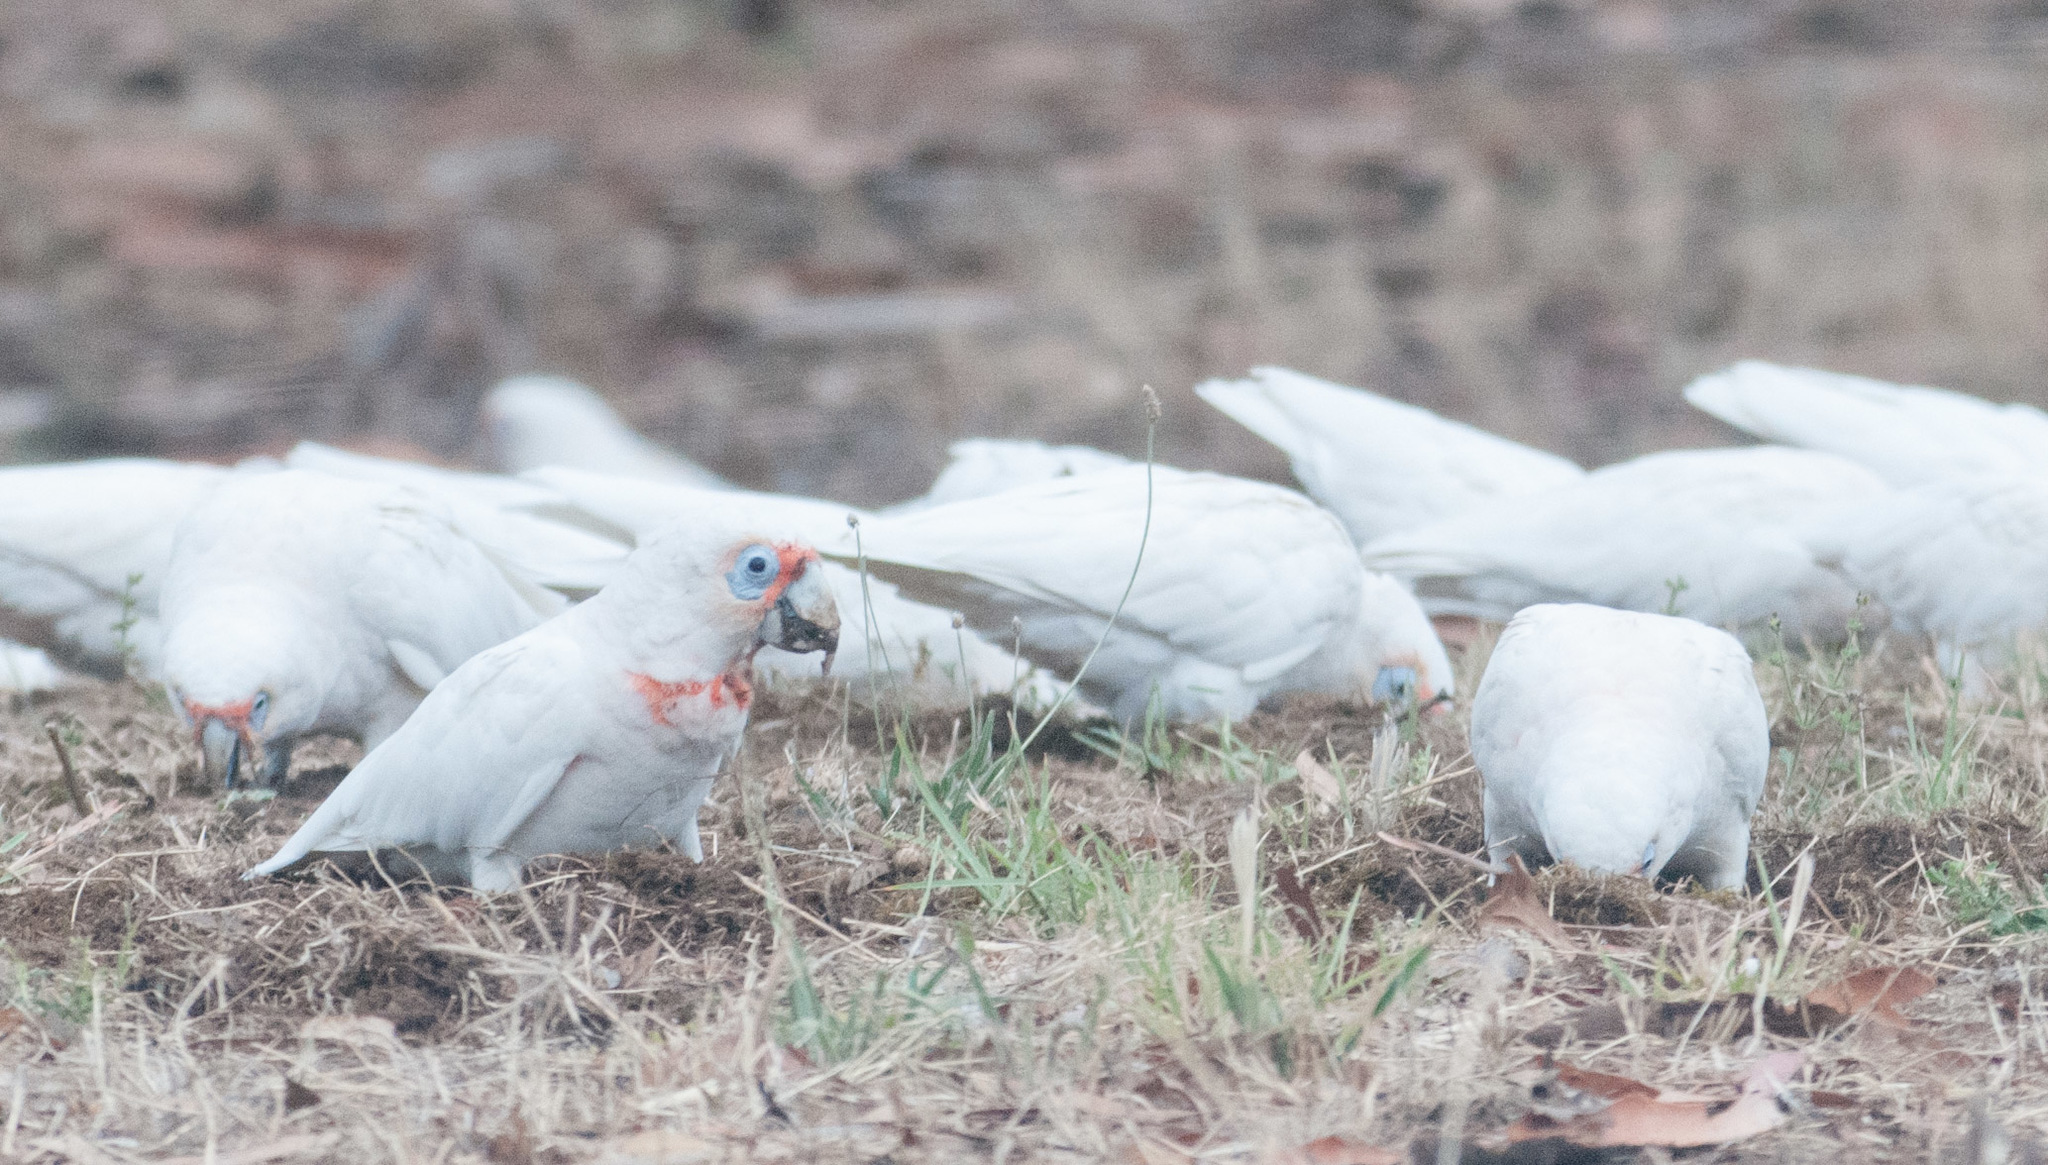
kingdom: Animalia
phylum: Chordata
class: Aves
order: Psittaciformes
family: Psittacidae
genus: Cacatua
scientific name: Cacatua tenuirostris
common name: Long-billed corella
